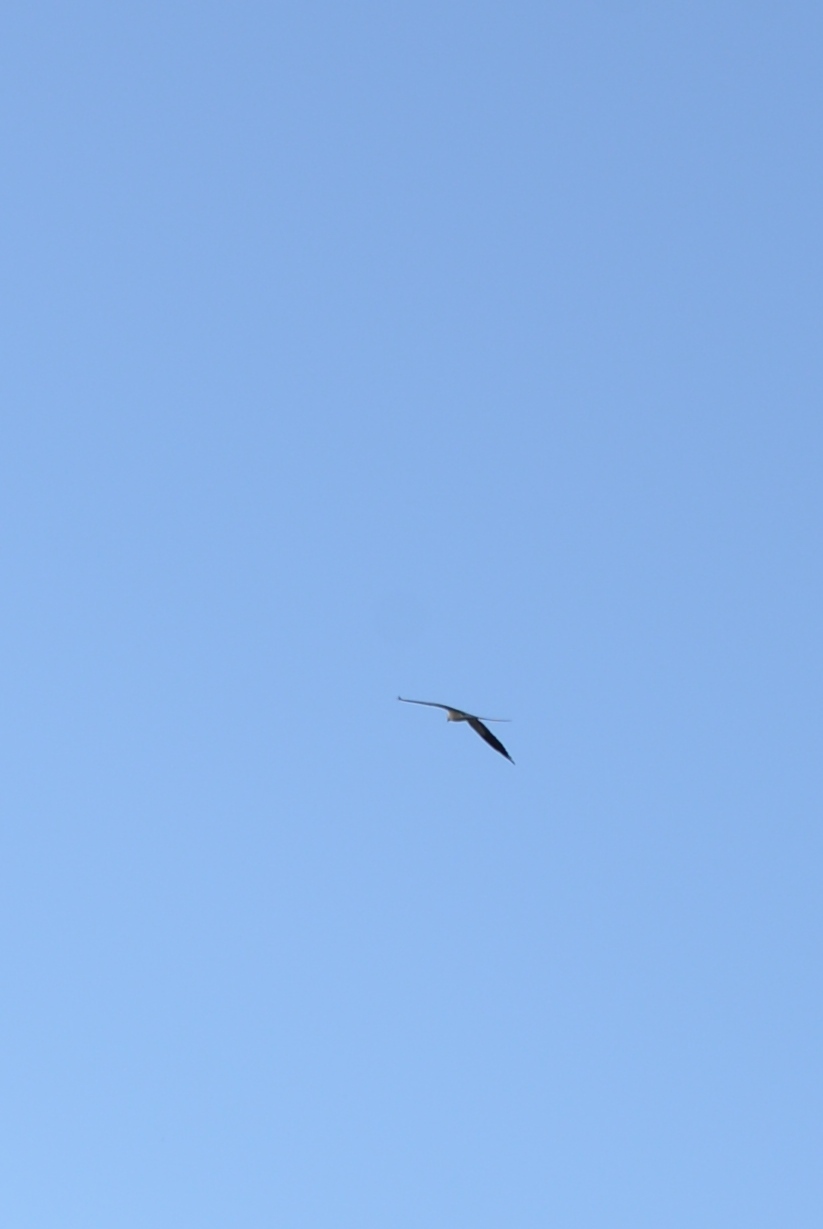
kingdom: Animalia
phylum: Chordata
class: Aves
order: Accipitriformes
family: Accipitridae
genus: Elanoides
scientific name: Elanoides forficatus
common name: Swallow-tailed kite
